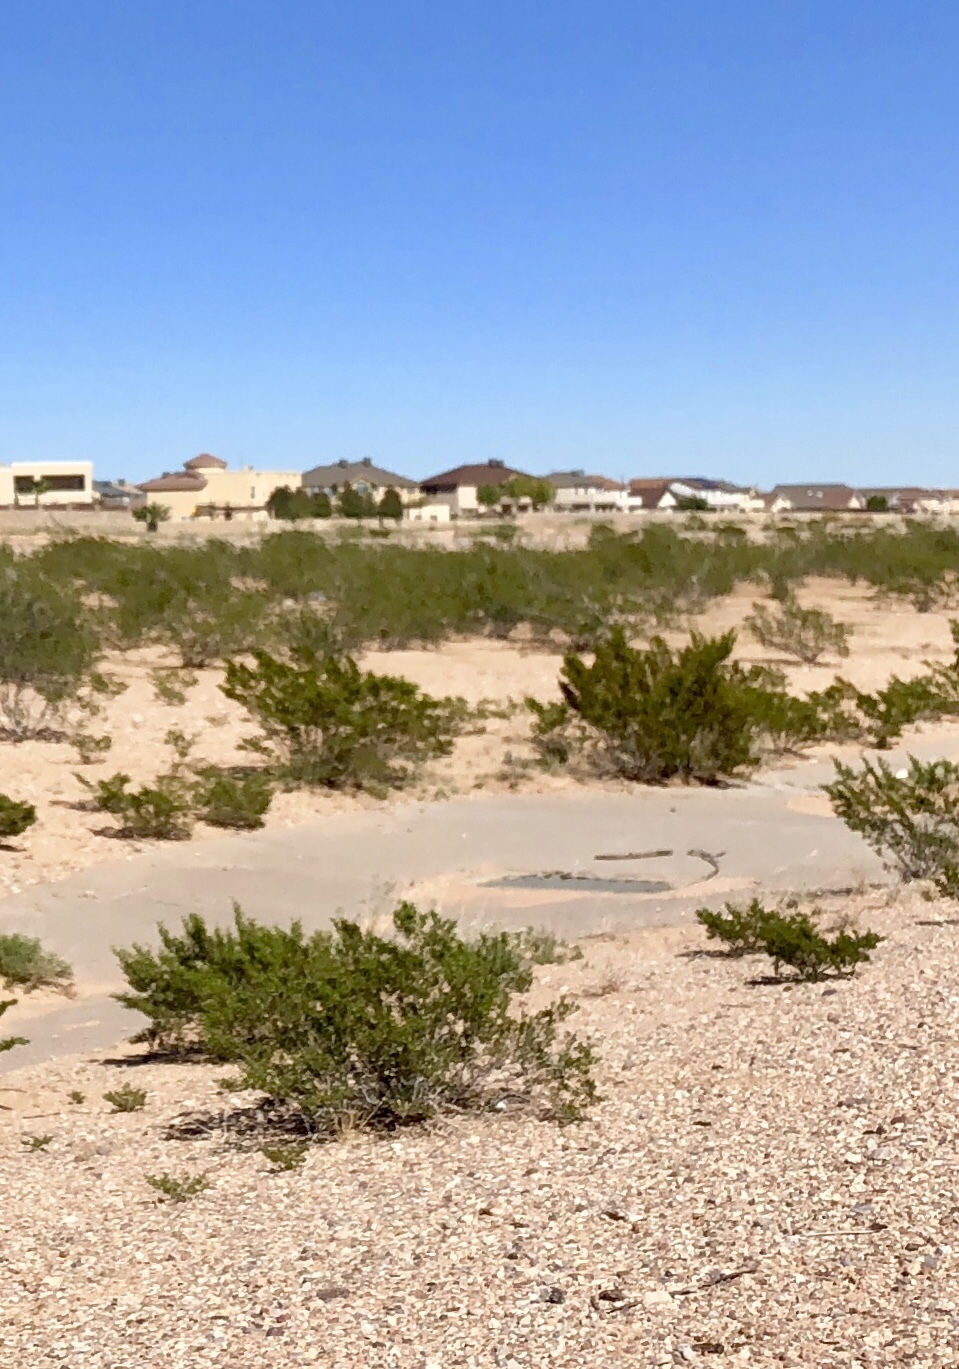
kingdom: Plantae
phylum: Tracheophyta
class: Magnoliopsida
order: Zygophyllales
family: Zygophyllaceae
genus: Larrea
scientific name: Larrea tridentata
